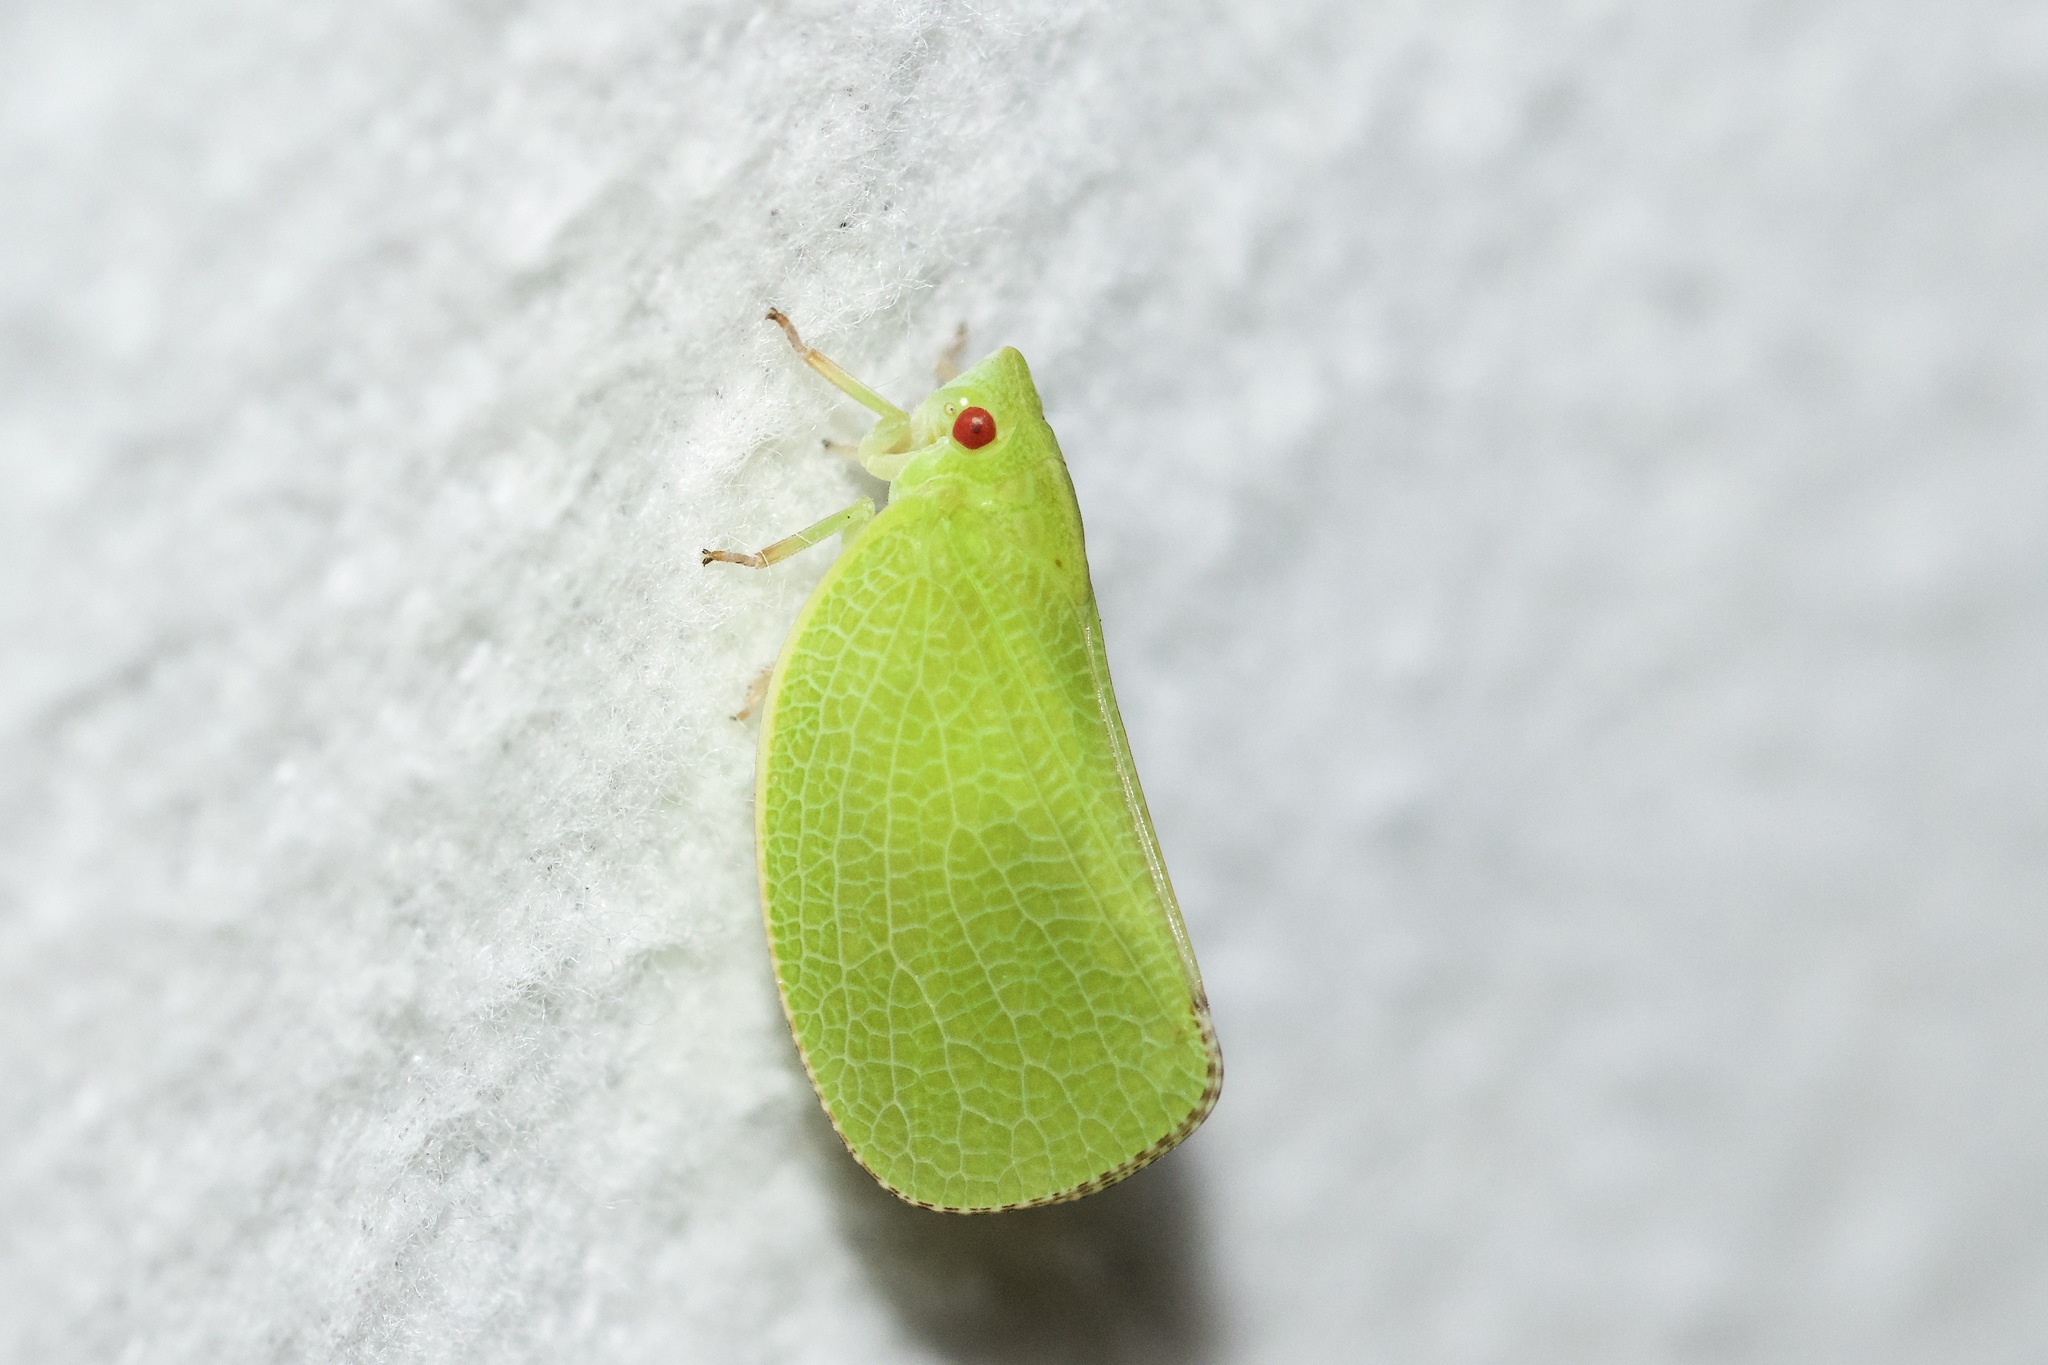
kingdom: Animalia
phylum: Arthropoda
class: Insecta
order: Hemiptera
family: Acanaloniidae
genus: Acanalonia
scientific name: Acanalonia conica
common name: Green cone-headed planthopper
